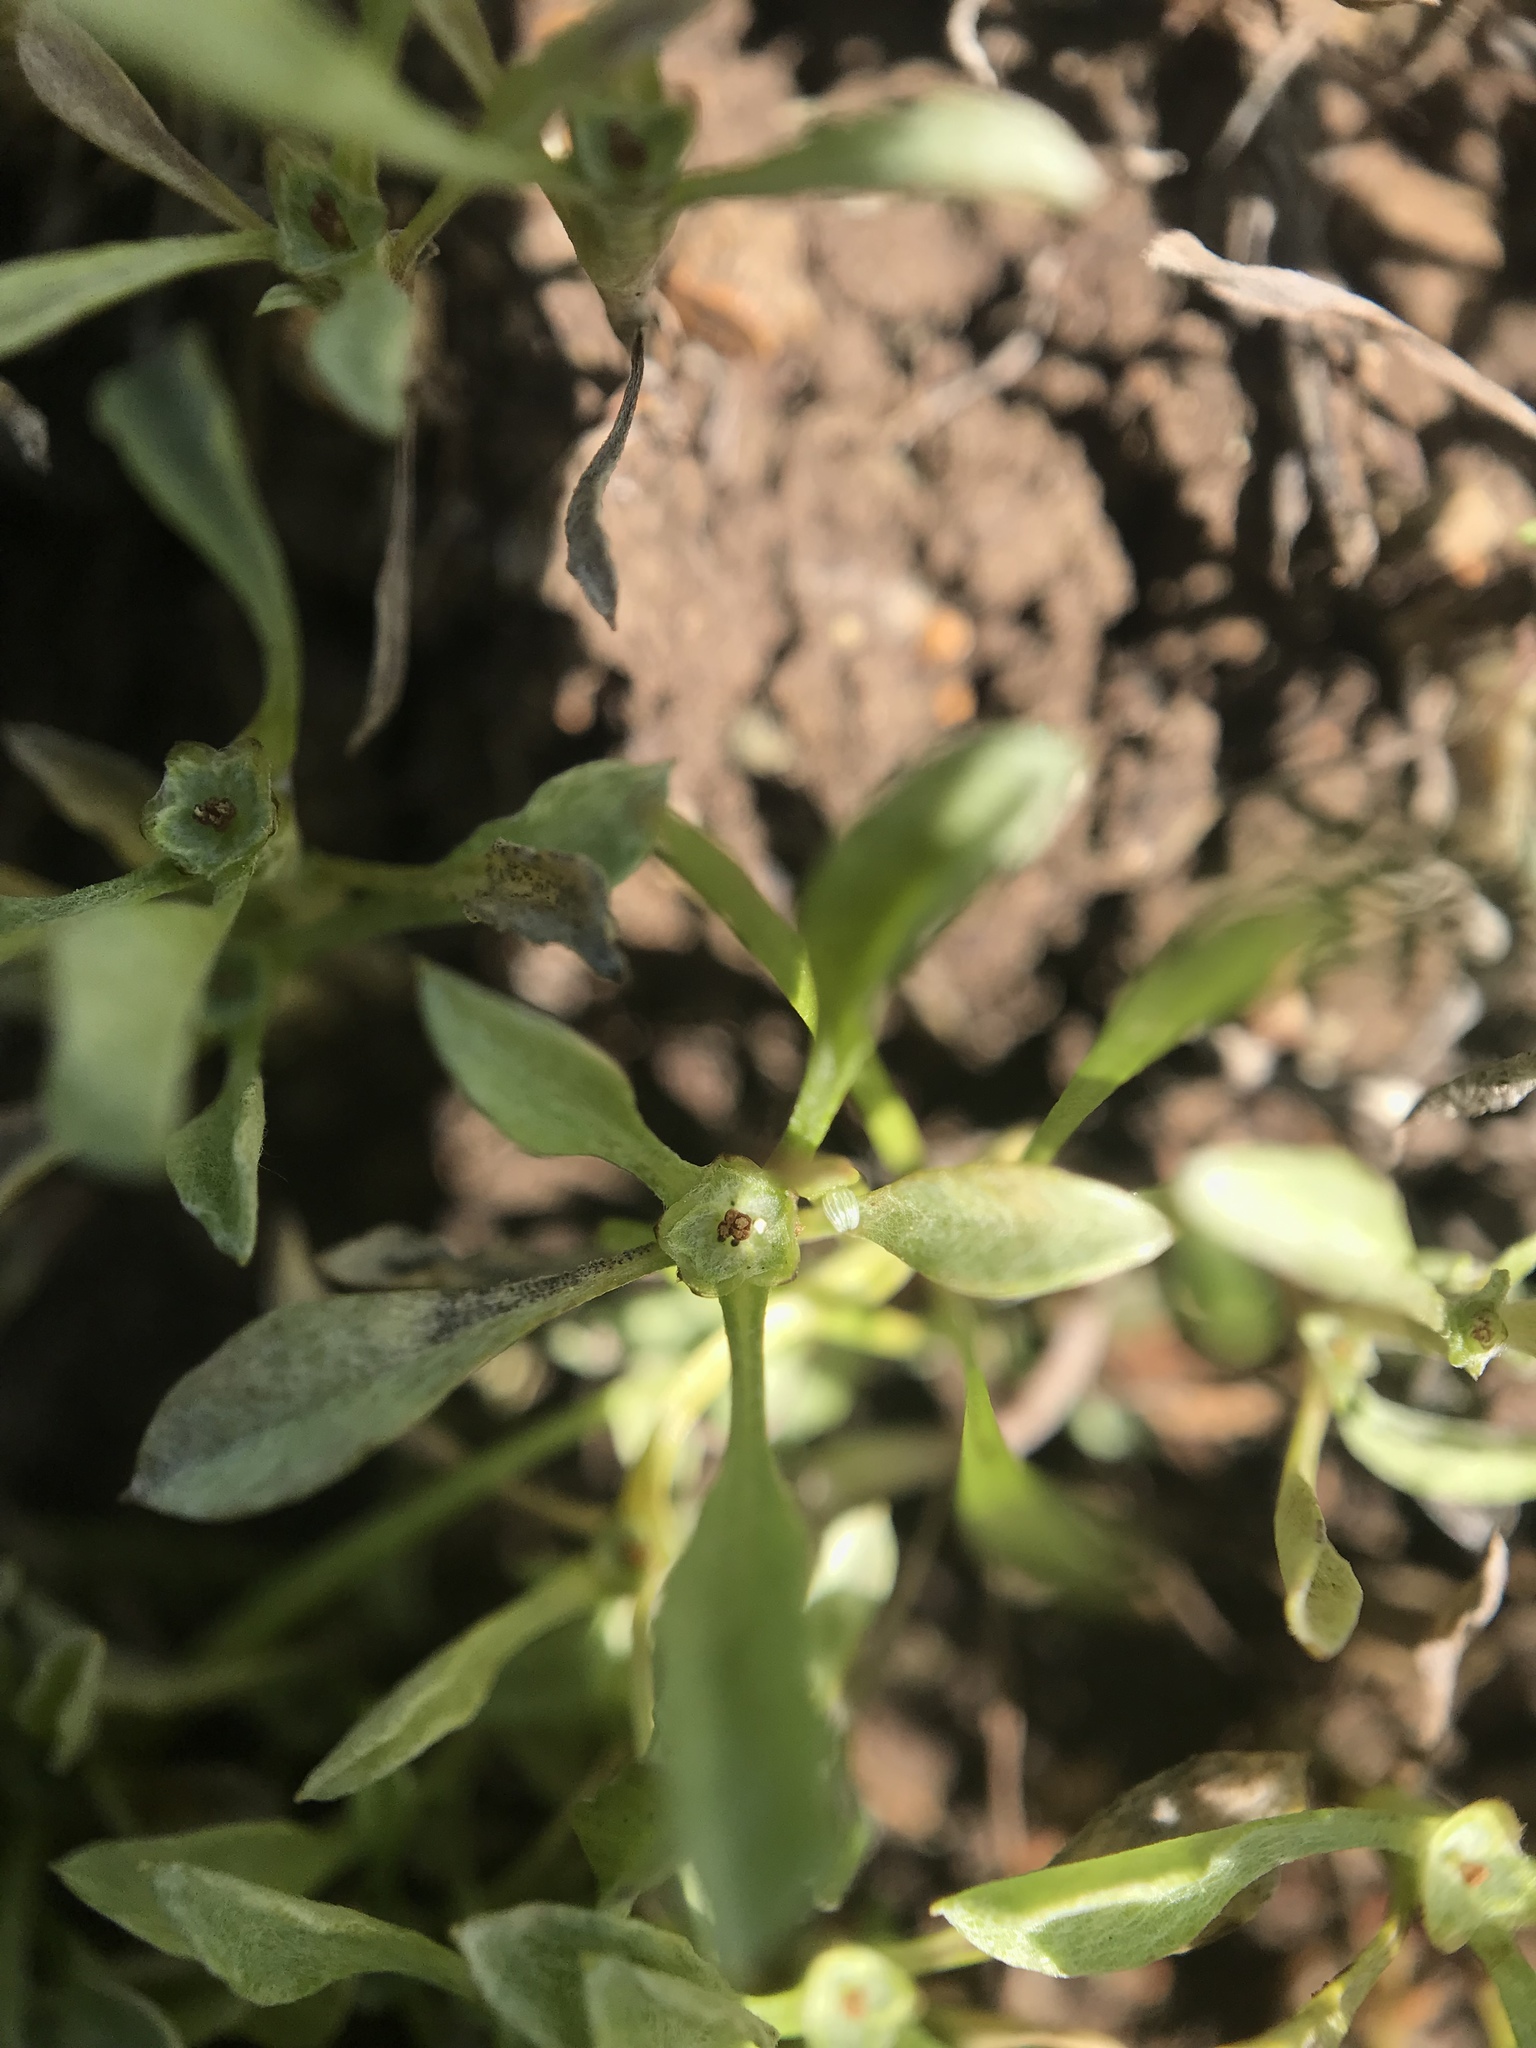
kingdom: Plantae
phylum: Tracheophyta
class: Magnoliopsida
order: Asterales
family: Asteraceae
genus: Hesperevax
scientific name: Hesperevax sparsiflora
